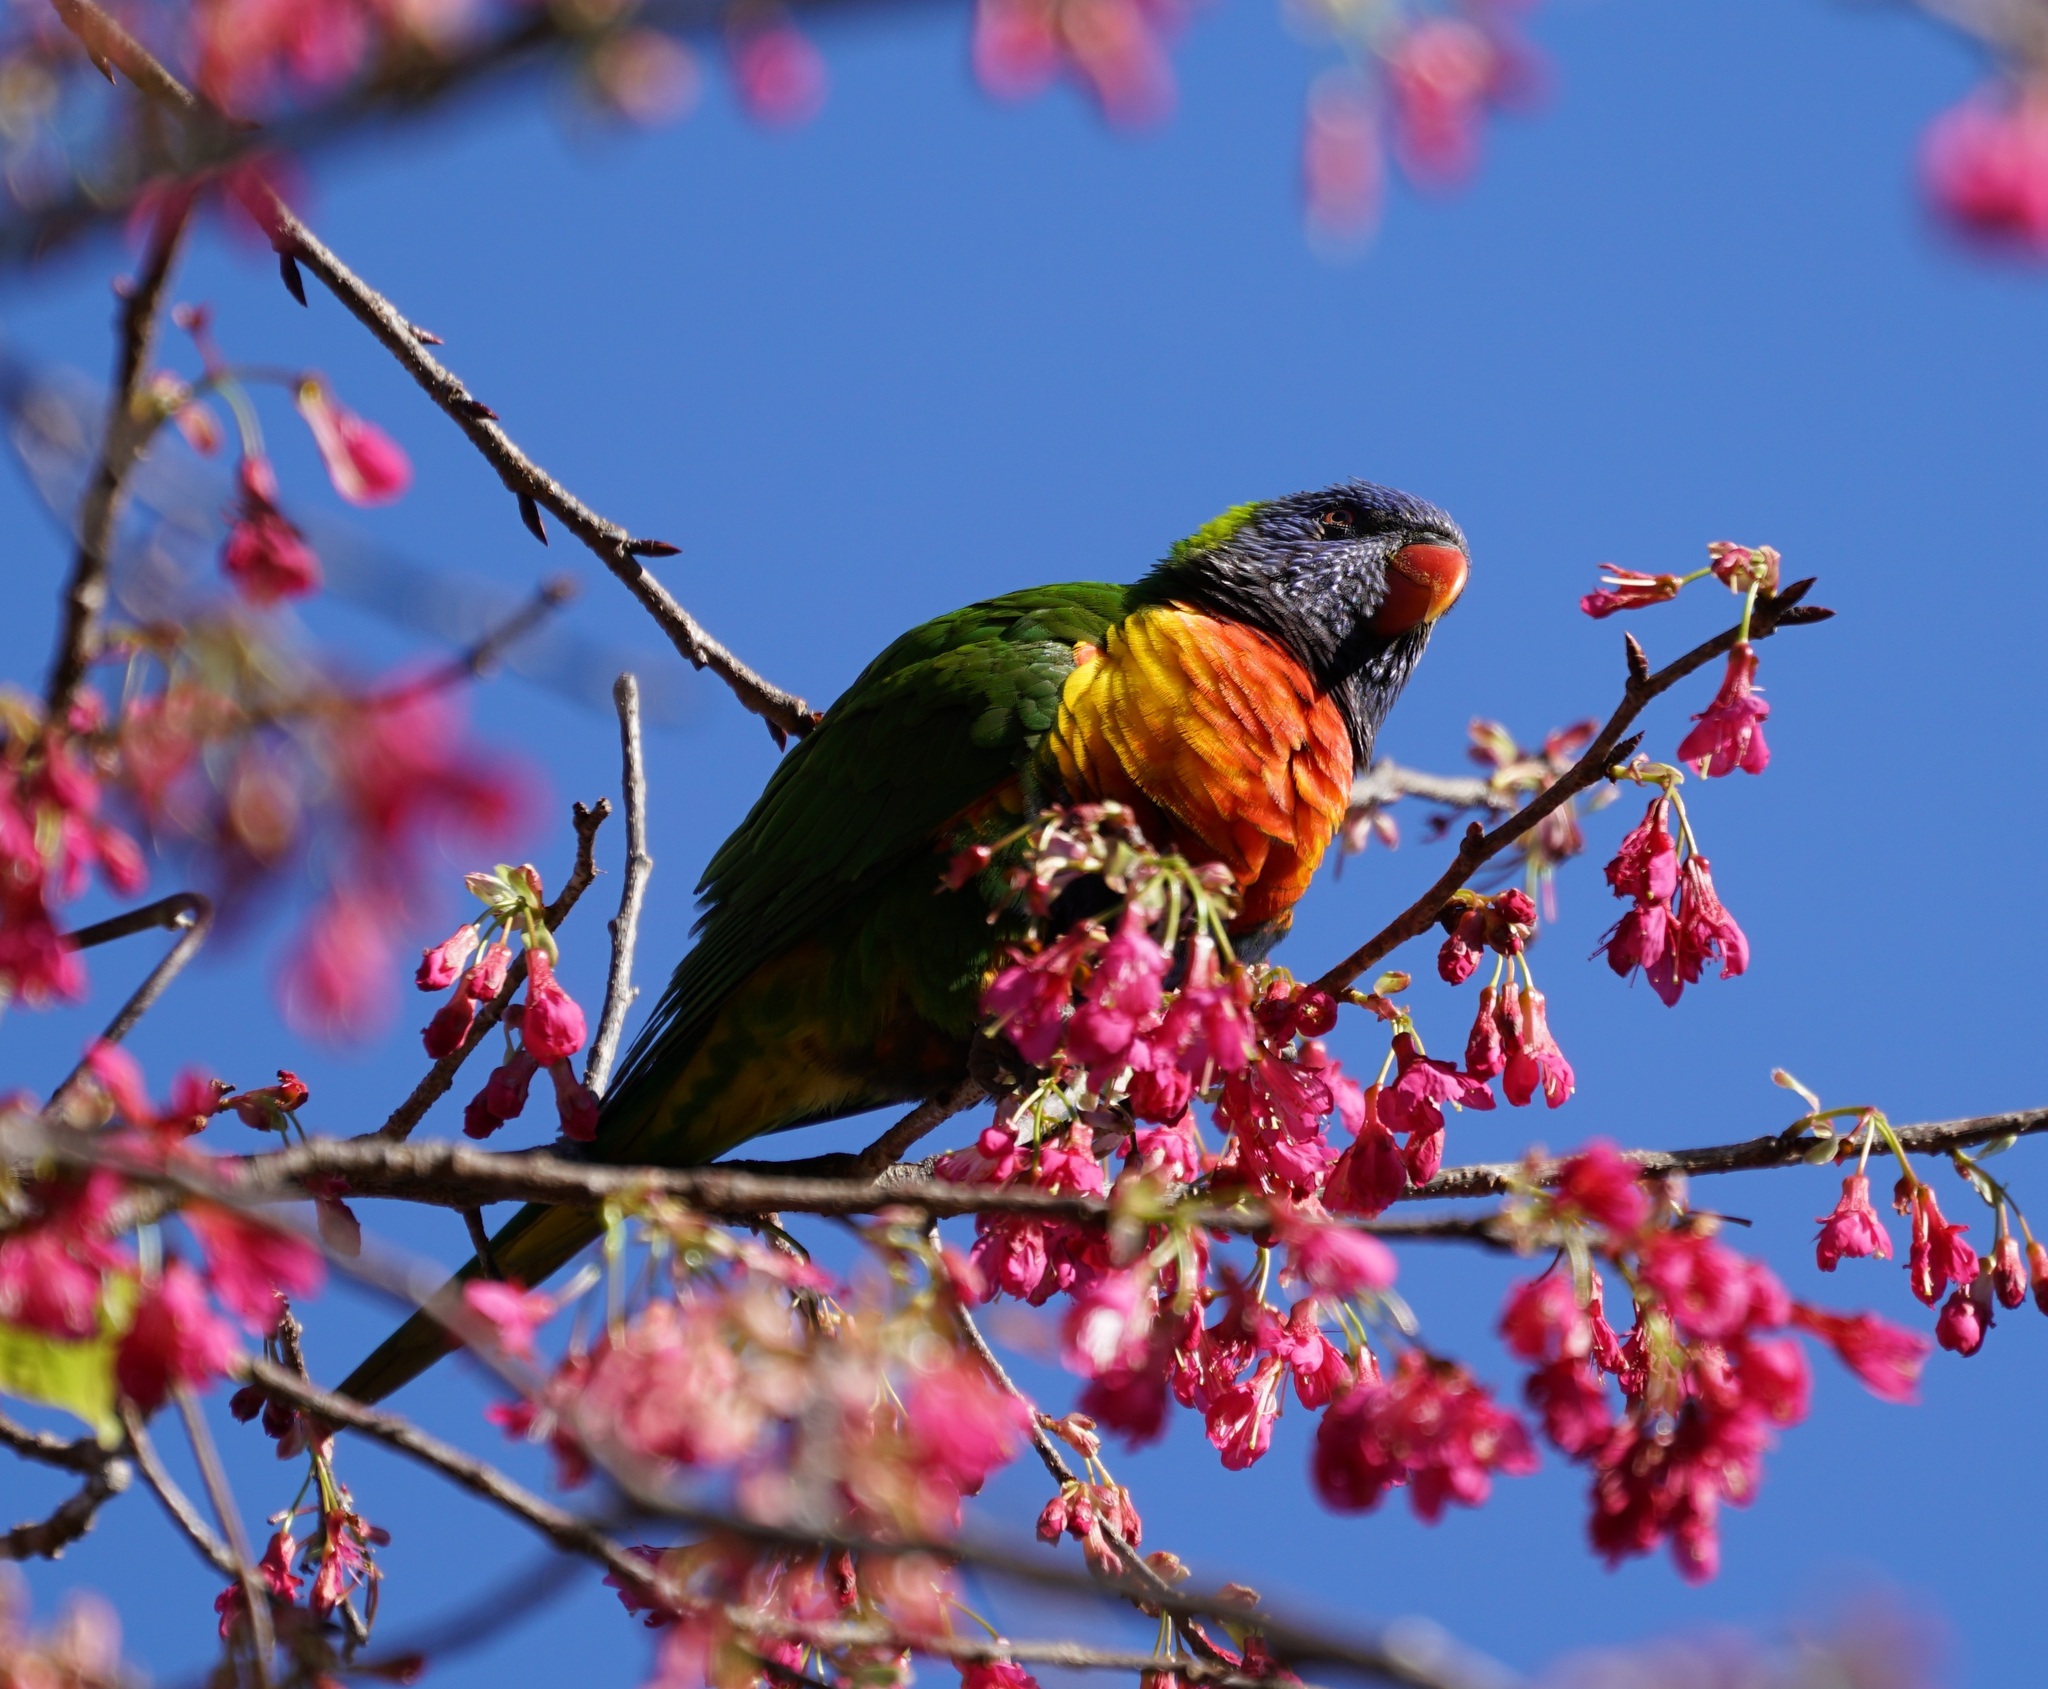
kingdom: Animalia
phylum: Chordata
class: Aves
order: Psittaciformes
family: Psittacidae
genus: Trichoglossus
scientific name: Trichoglossus haematodus
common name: Coconut lorikeet
